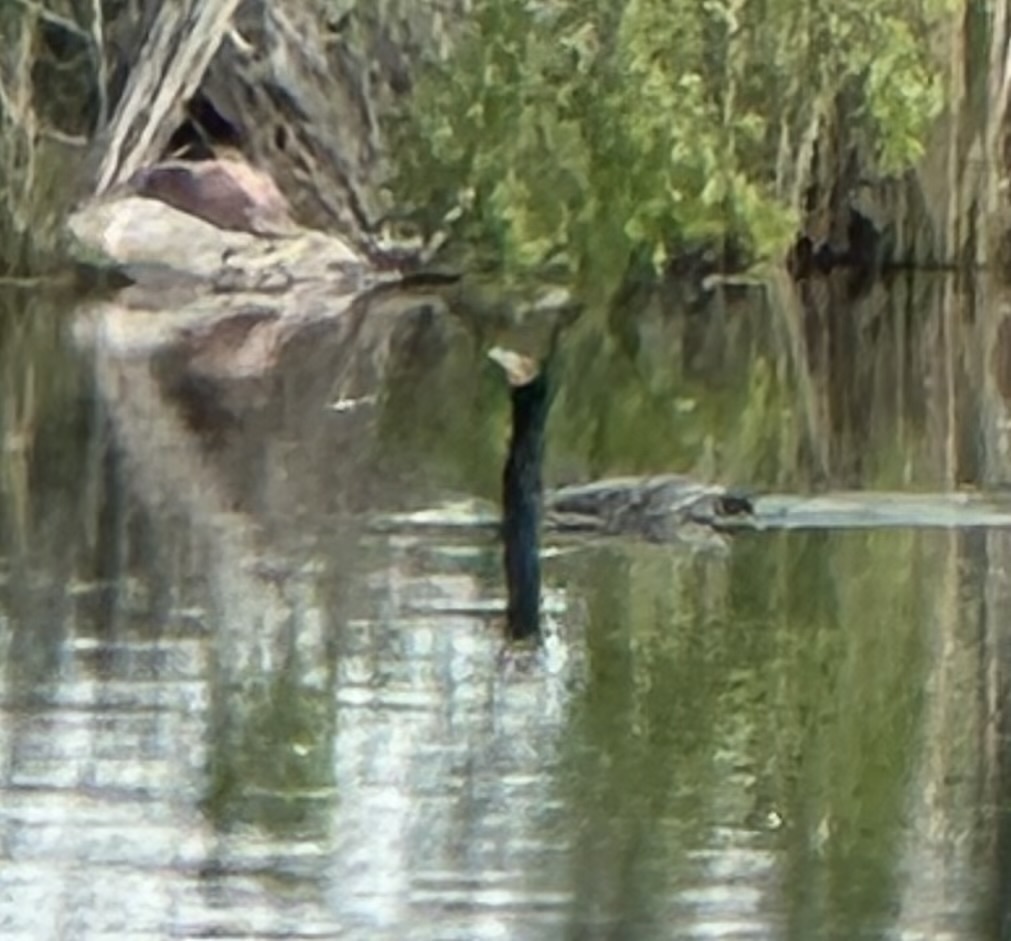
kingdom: Animalia
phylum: Chordata
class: Aves
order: Suliformes
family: Phalacrocoracidae
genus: Phalacrocorax
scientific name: Phalacrocorax auritus
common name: Double-crested cormorant
